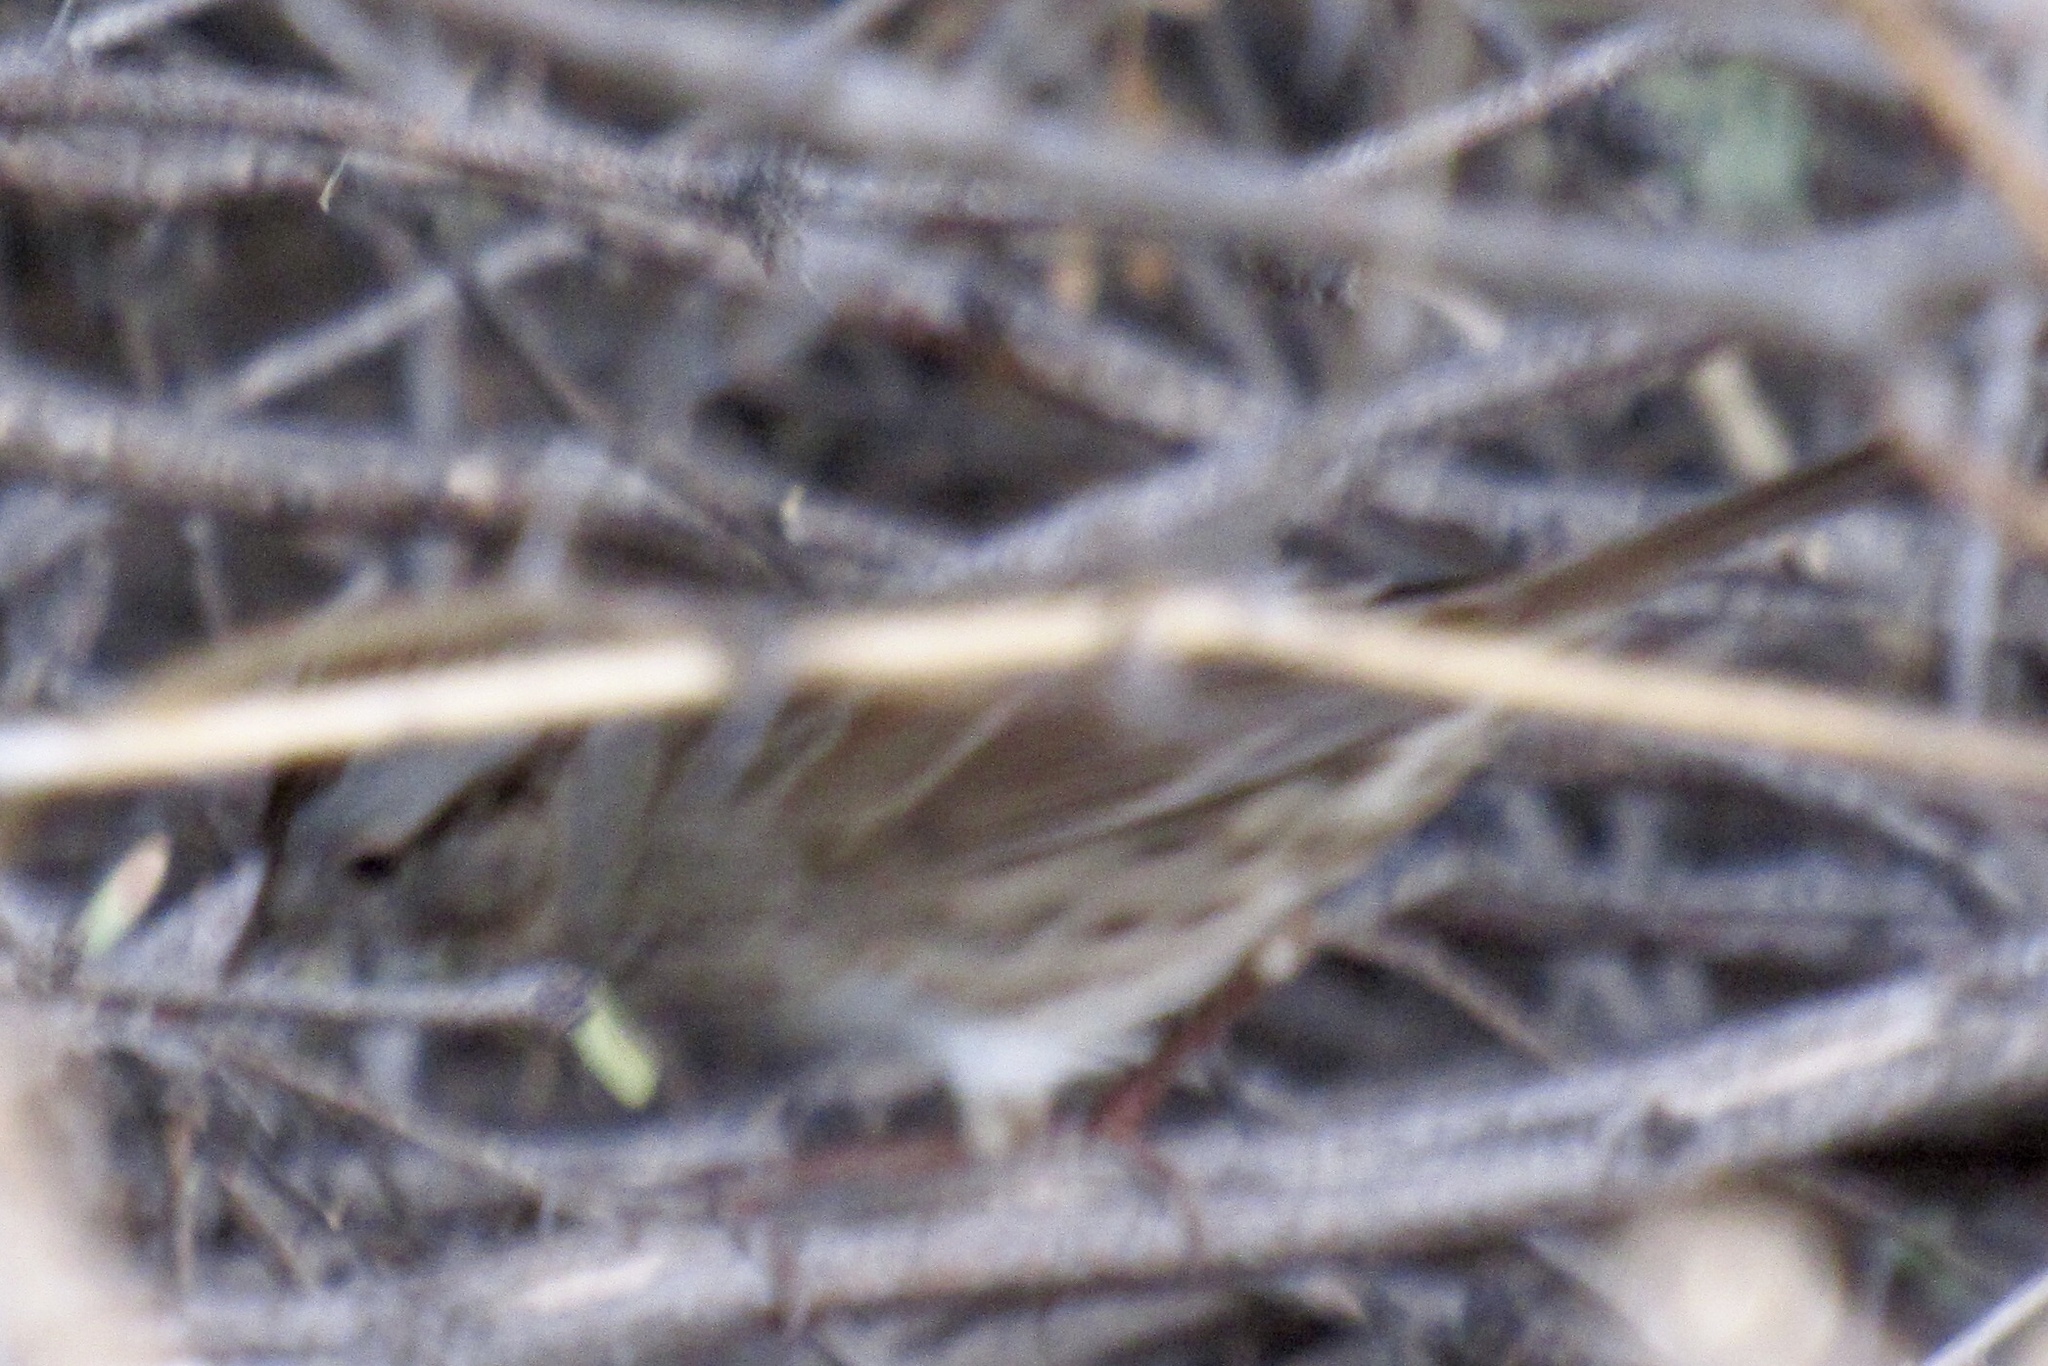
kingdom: Animalia
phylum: Chordata
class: Aves
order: Passeriformes
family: Passerellidae
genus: Melospiza
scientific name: Melospiza lincolnii
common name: Lincoln's sparrow
